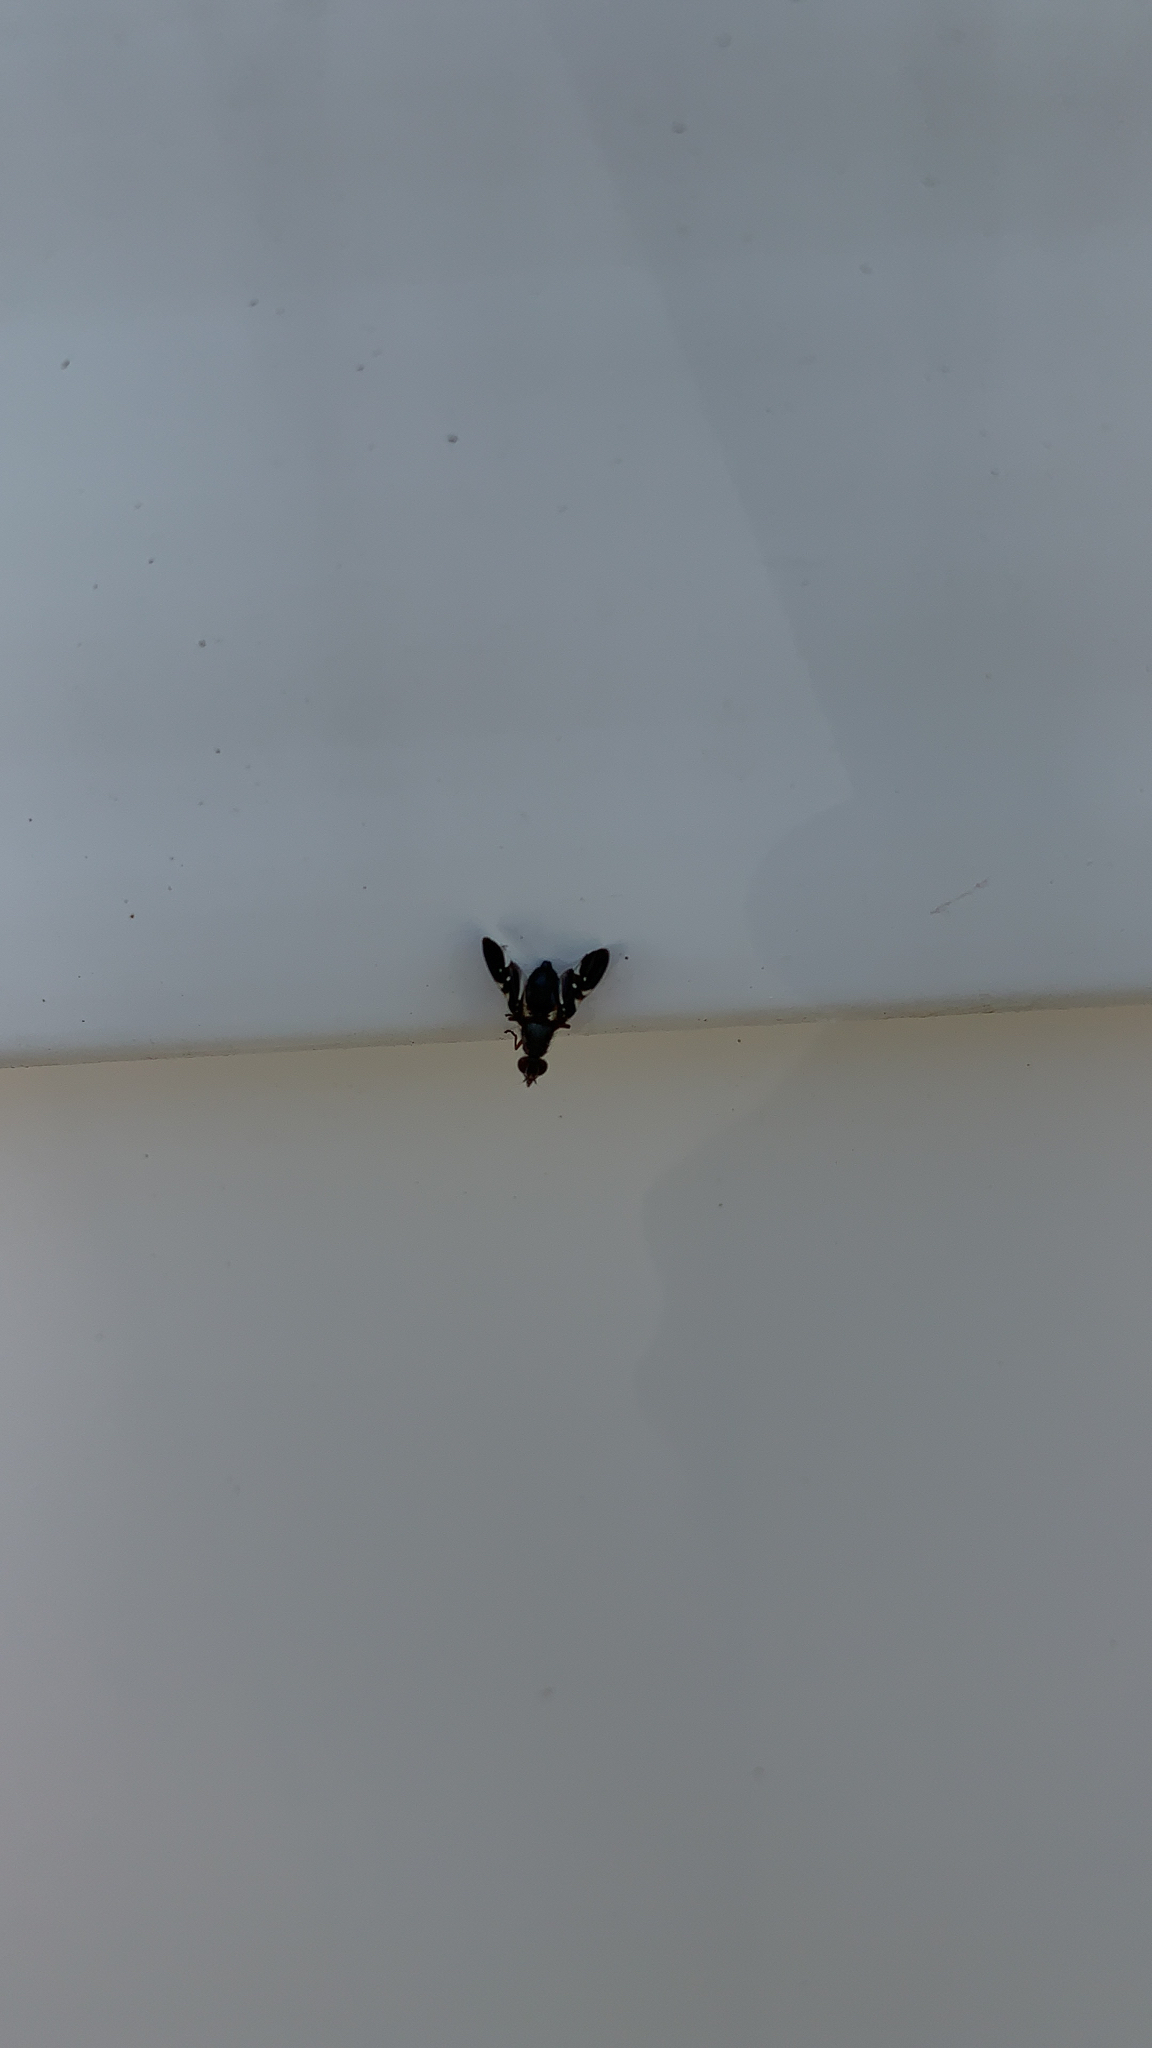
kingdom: Animalia
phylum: Arthropoda
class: Insecta
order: Diptera
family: Ulidiidae
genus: Delphinia
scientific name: Delphinia picta
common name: Common picture-winged fly
